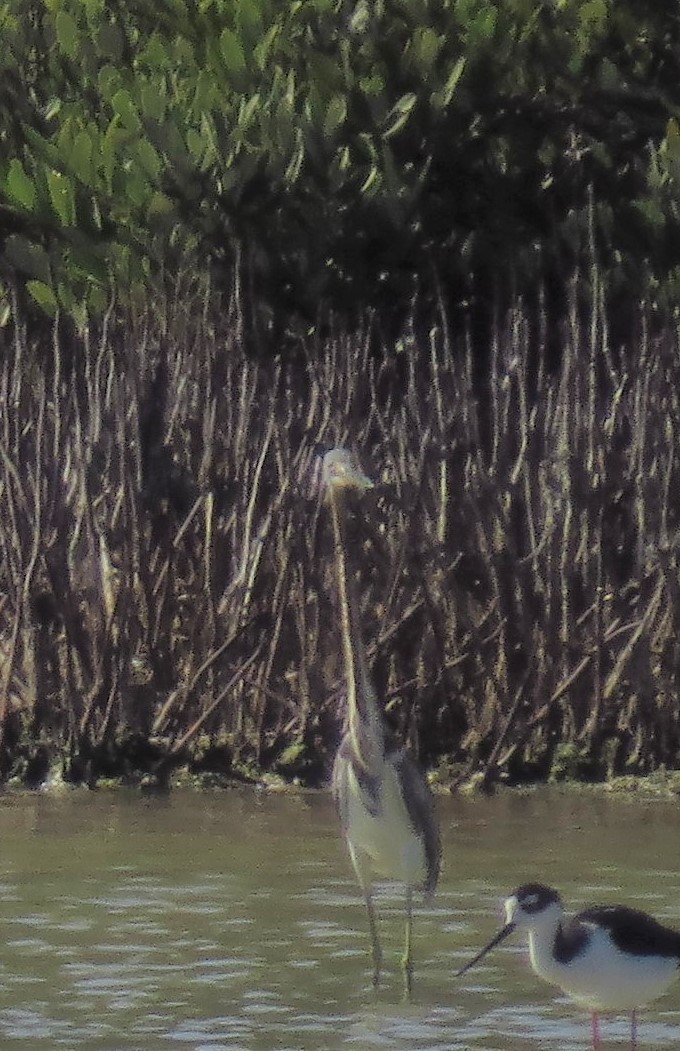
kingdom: Animalia
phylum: Chordata
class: Aves
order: Pelecaniformes
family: Ardeidae
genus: Egretta
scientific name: Egretta tricolor
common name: Tricolored heron
